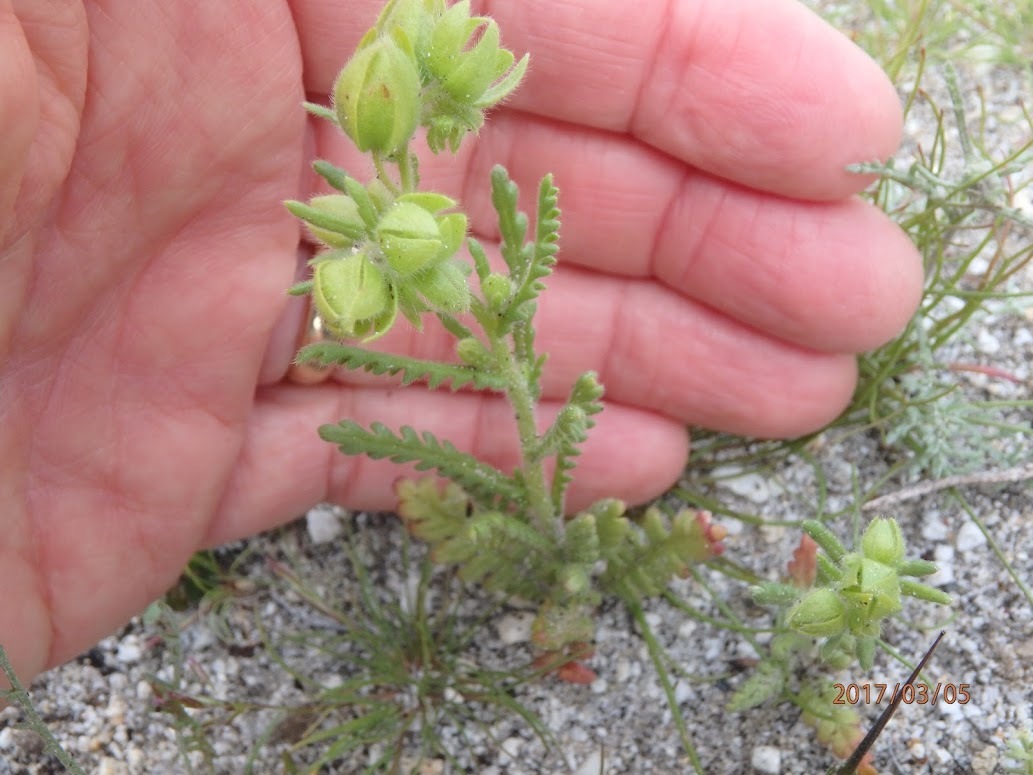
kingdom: Plantae
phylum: Tracheophyta
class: Magnoliopsida
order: Boraginales
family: Hydrophyllaceae
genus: Emmenanthe
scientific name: Emmenanthe penduliflora
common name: Whispering-bells
